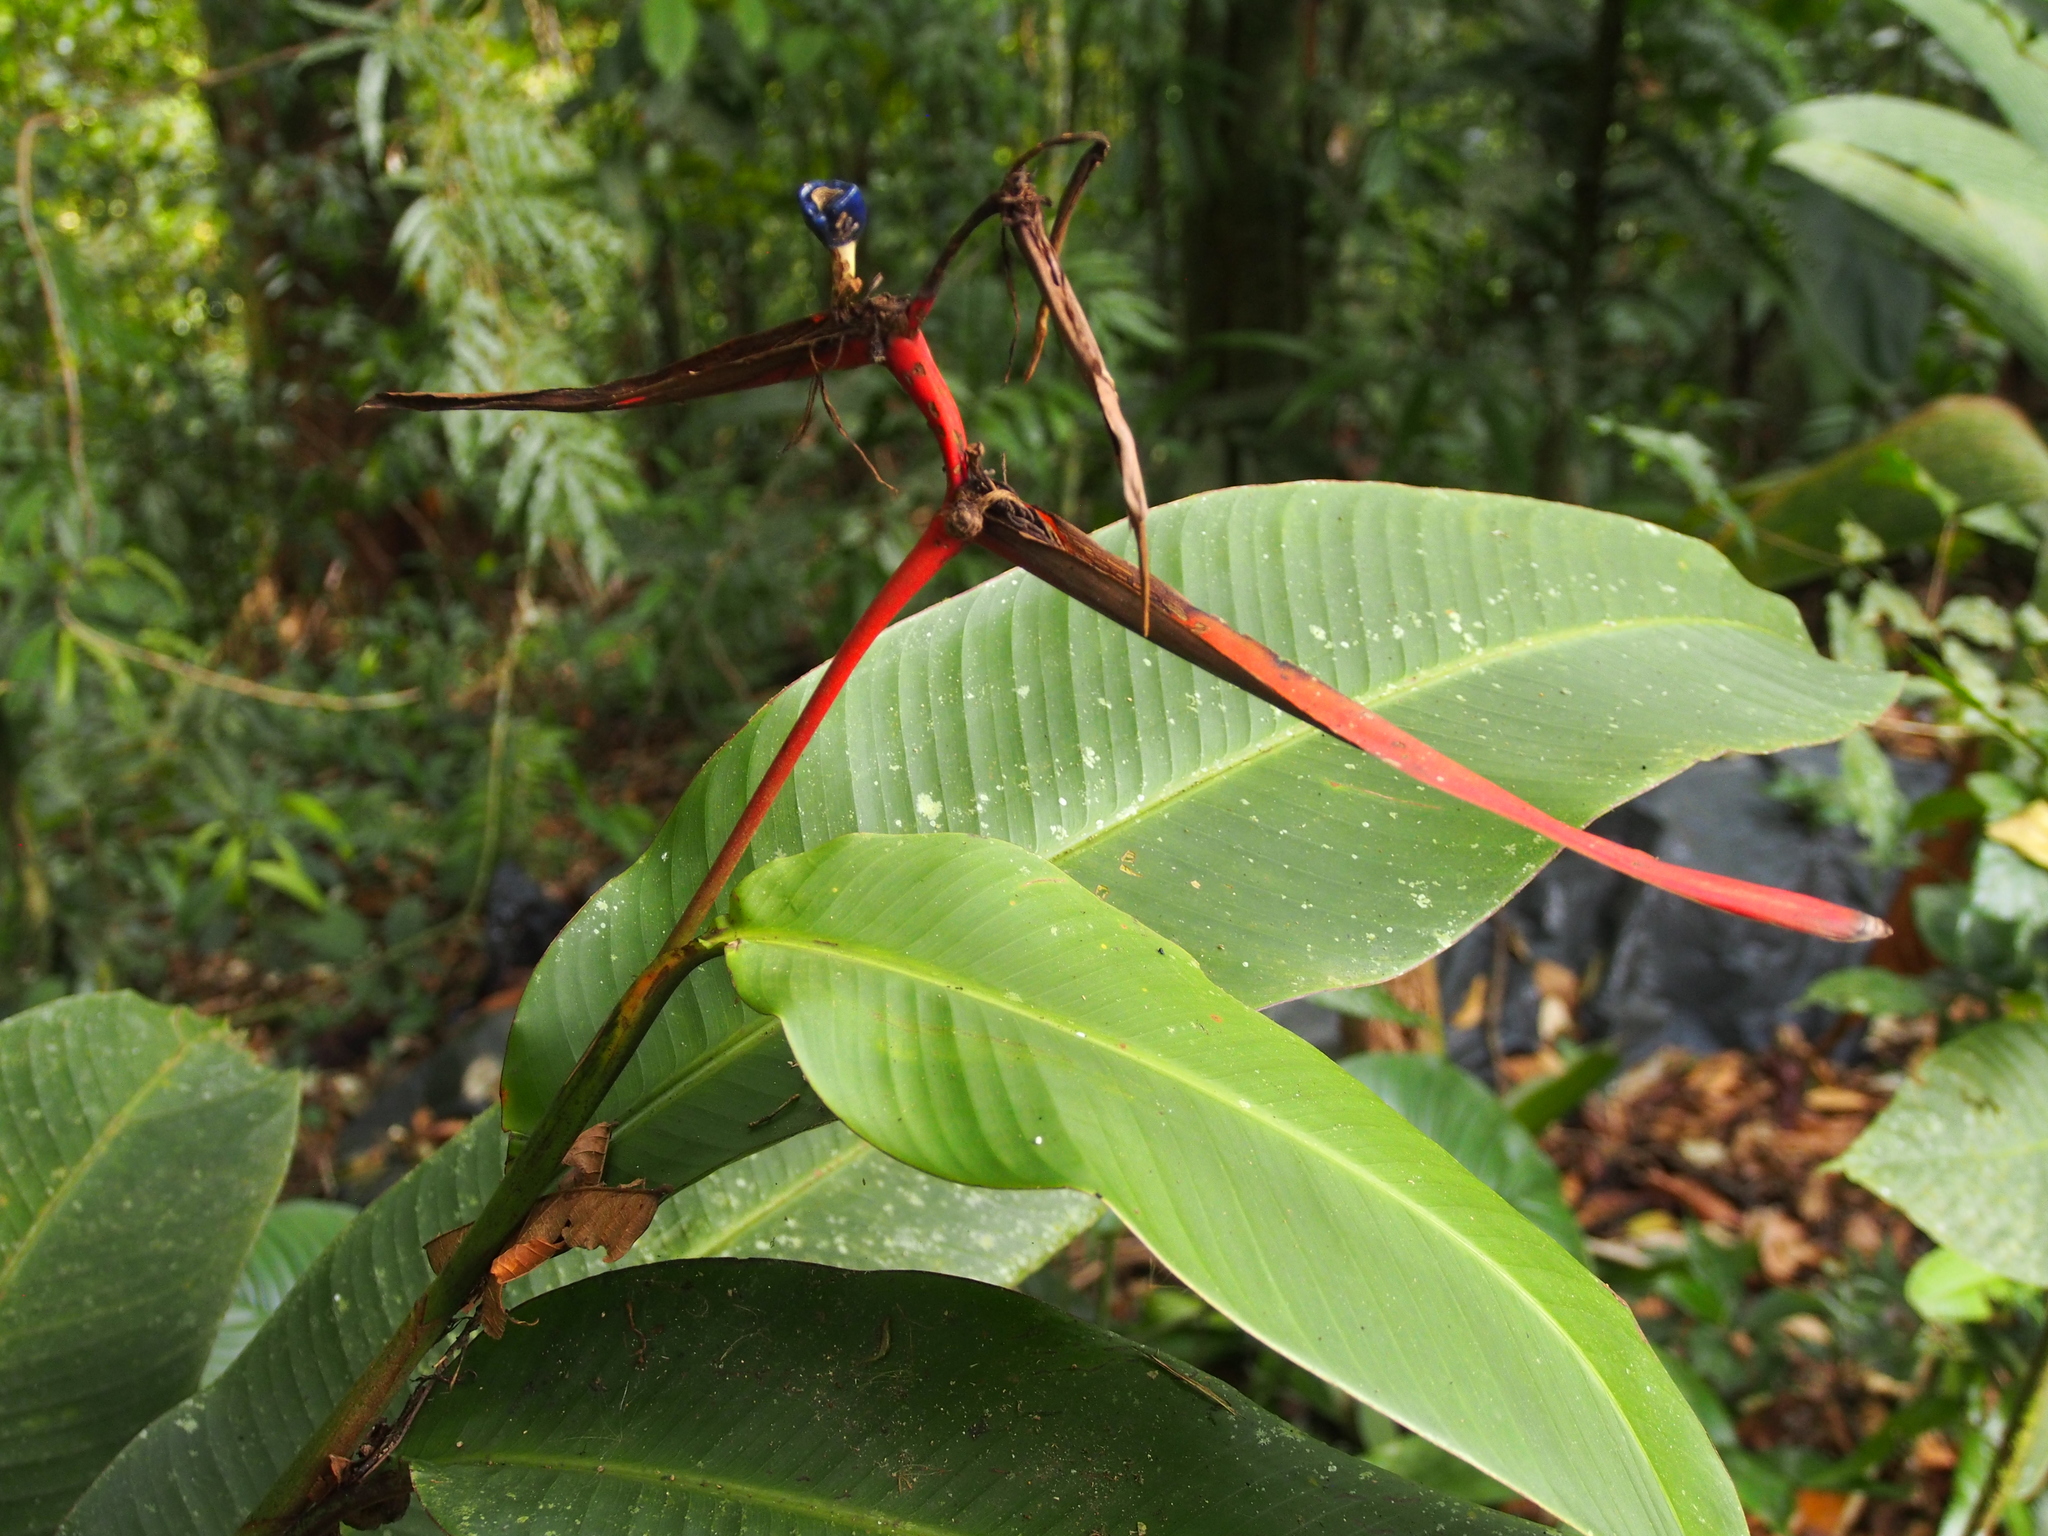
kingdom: Plantae
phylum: Tracheophyta
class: Liliopsida
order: Zingiberales
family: Heliconiaceae
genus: Heliconia
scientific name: Heliconia vaginalis
